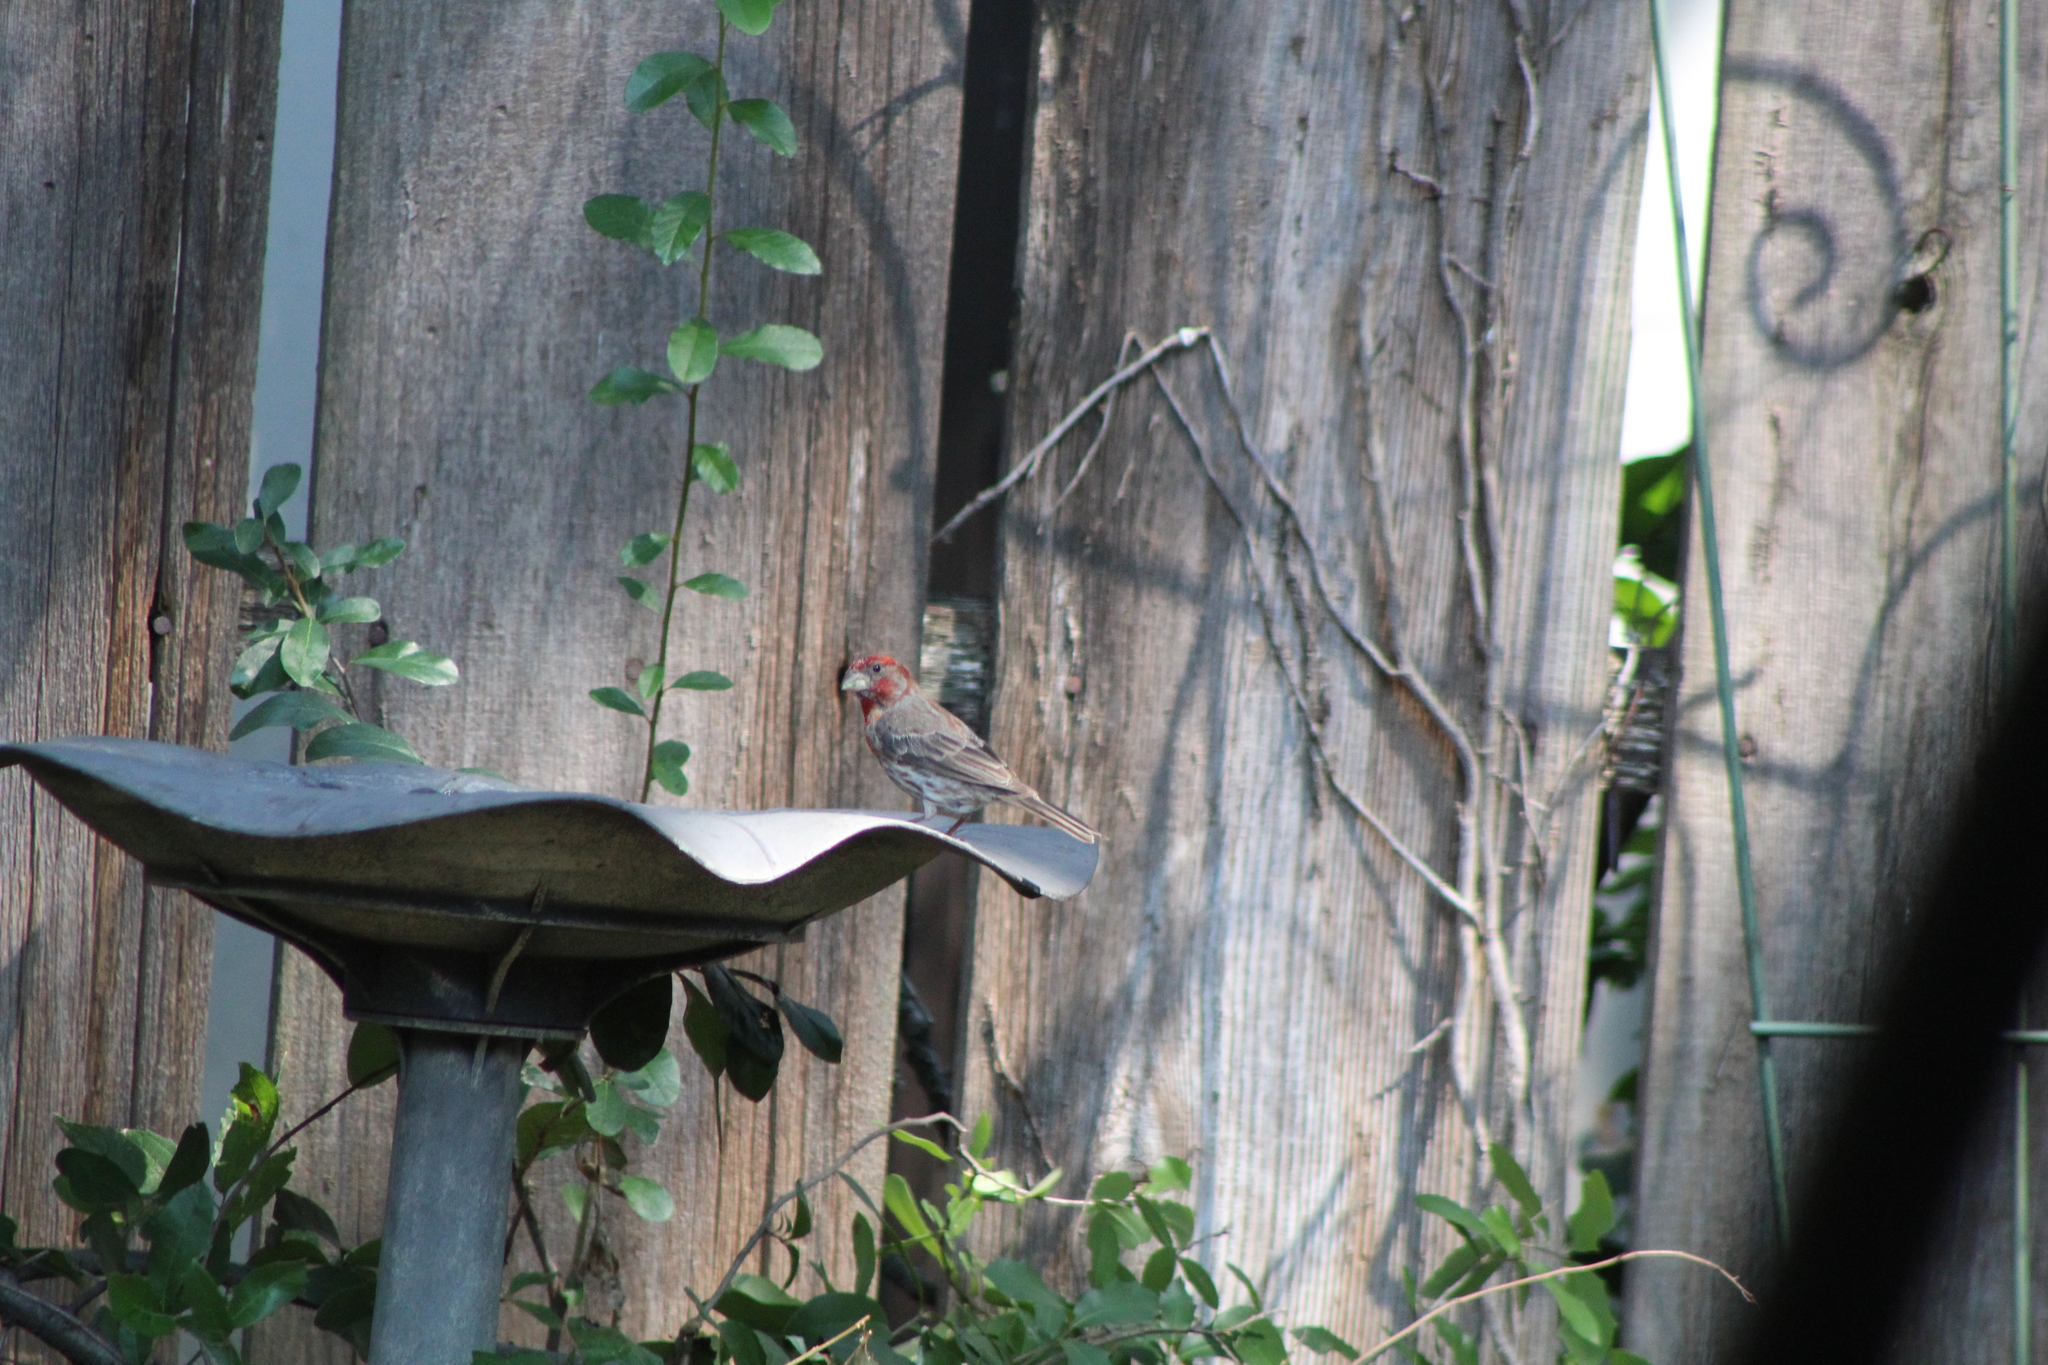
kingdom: Animalia
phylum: Chordata
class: Aves
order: Passeriformes
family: Fringillidae
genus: Haemorhous
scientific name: Haemorhous mexicanus
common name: House finch
